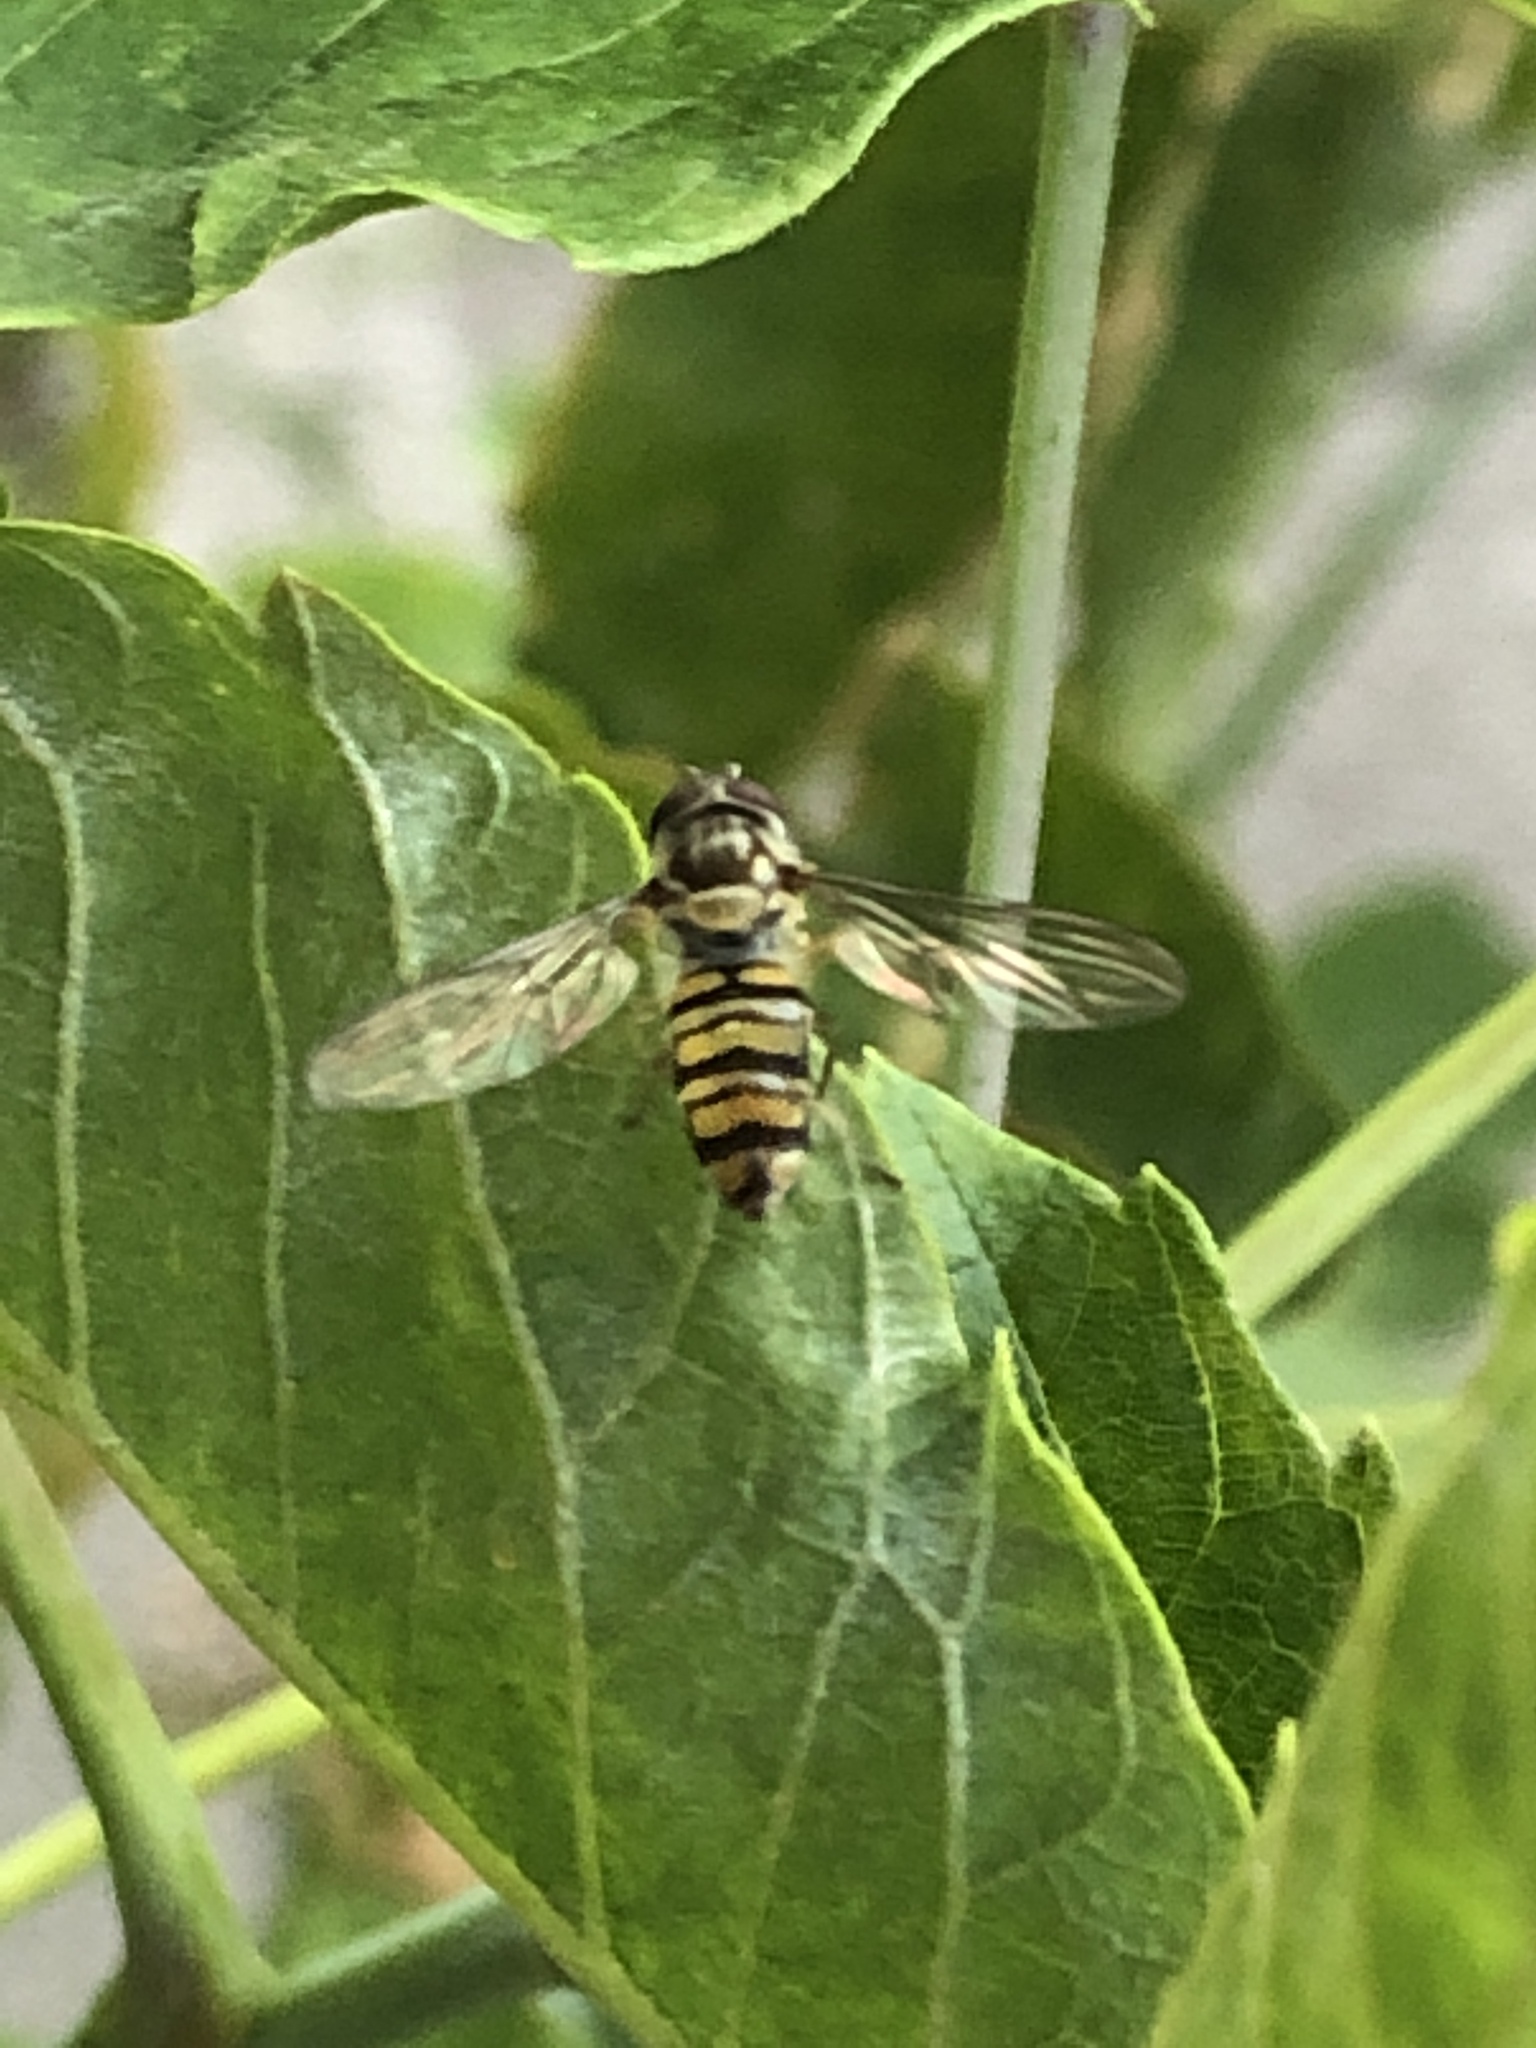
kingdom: Animalia
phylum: Arthropoda
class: Insecta
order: Diptera
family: Syrphidae
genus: Episyrphus
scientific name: Episyrphus balteatus
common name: Marmalade hoverfly
